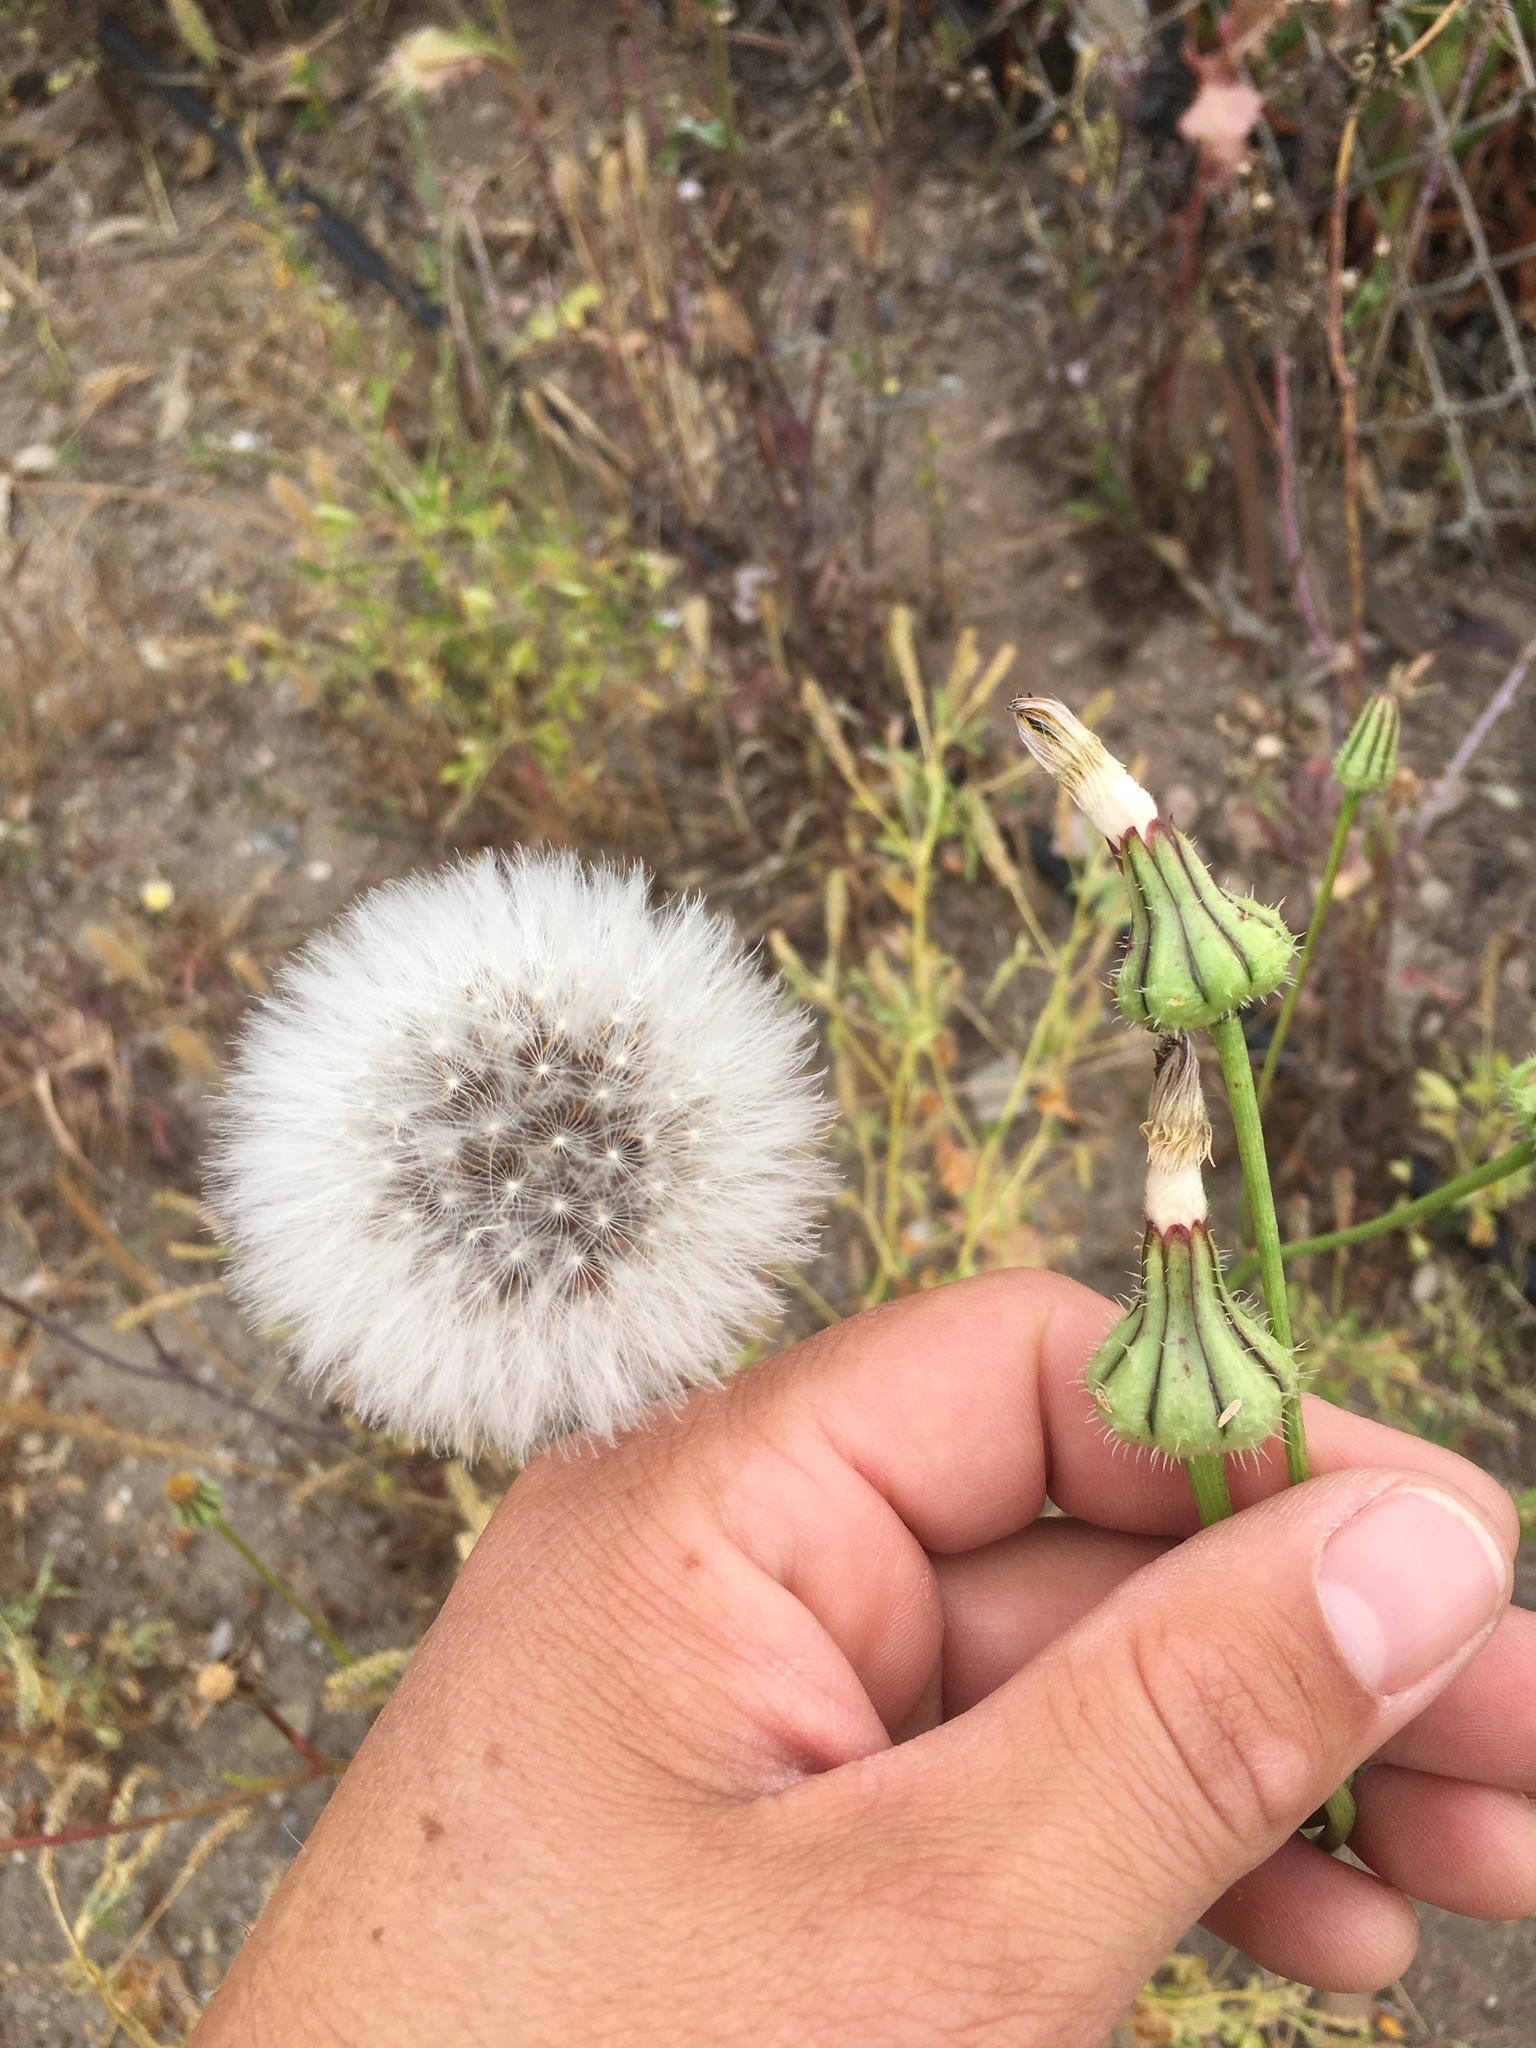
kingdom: Plantae
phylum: Tracheophyta
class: Magnoliopsida
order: Asterales
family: Asteraceae
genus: Urospermum
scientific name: Urospermum picroides
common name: False hawkbit
